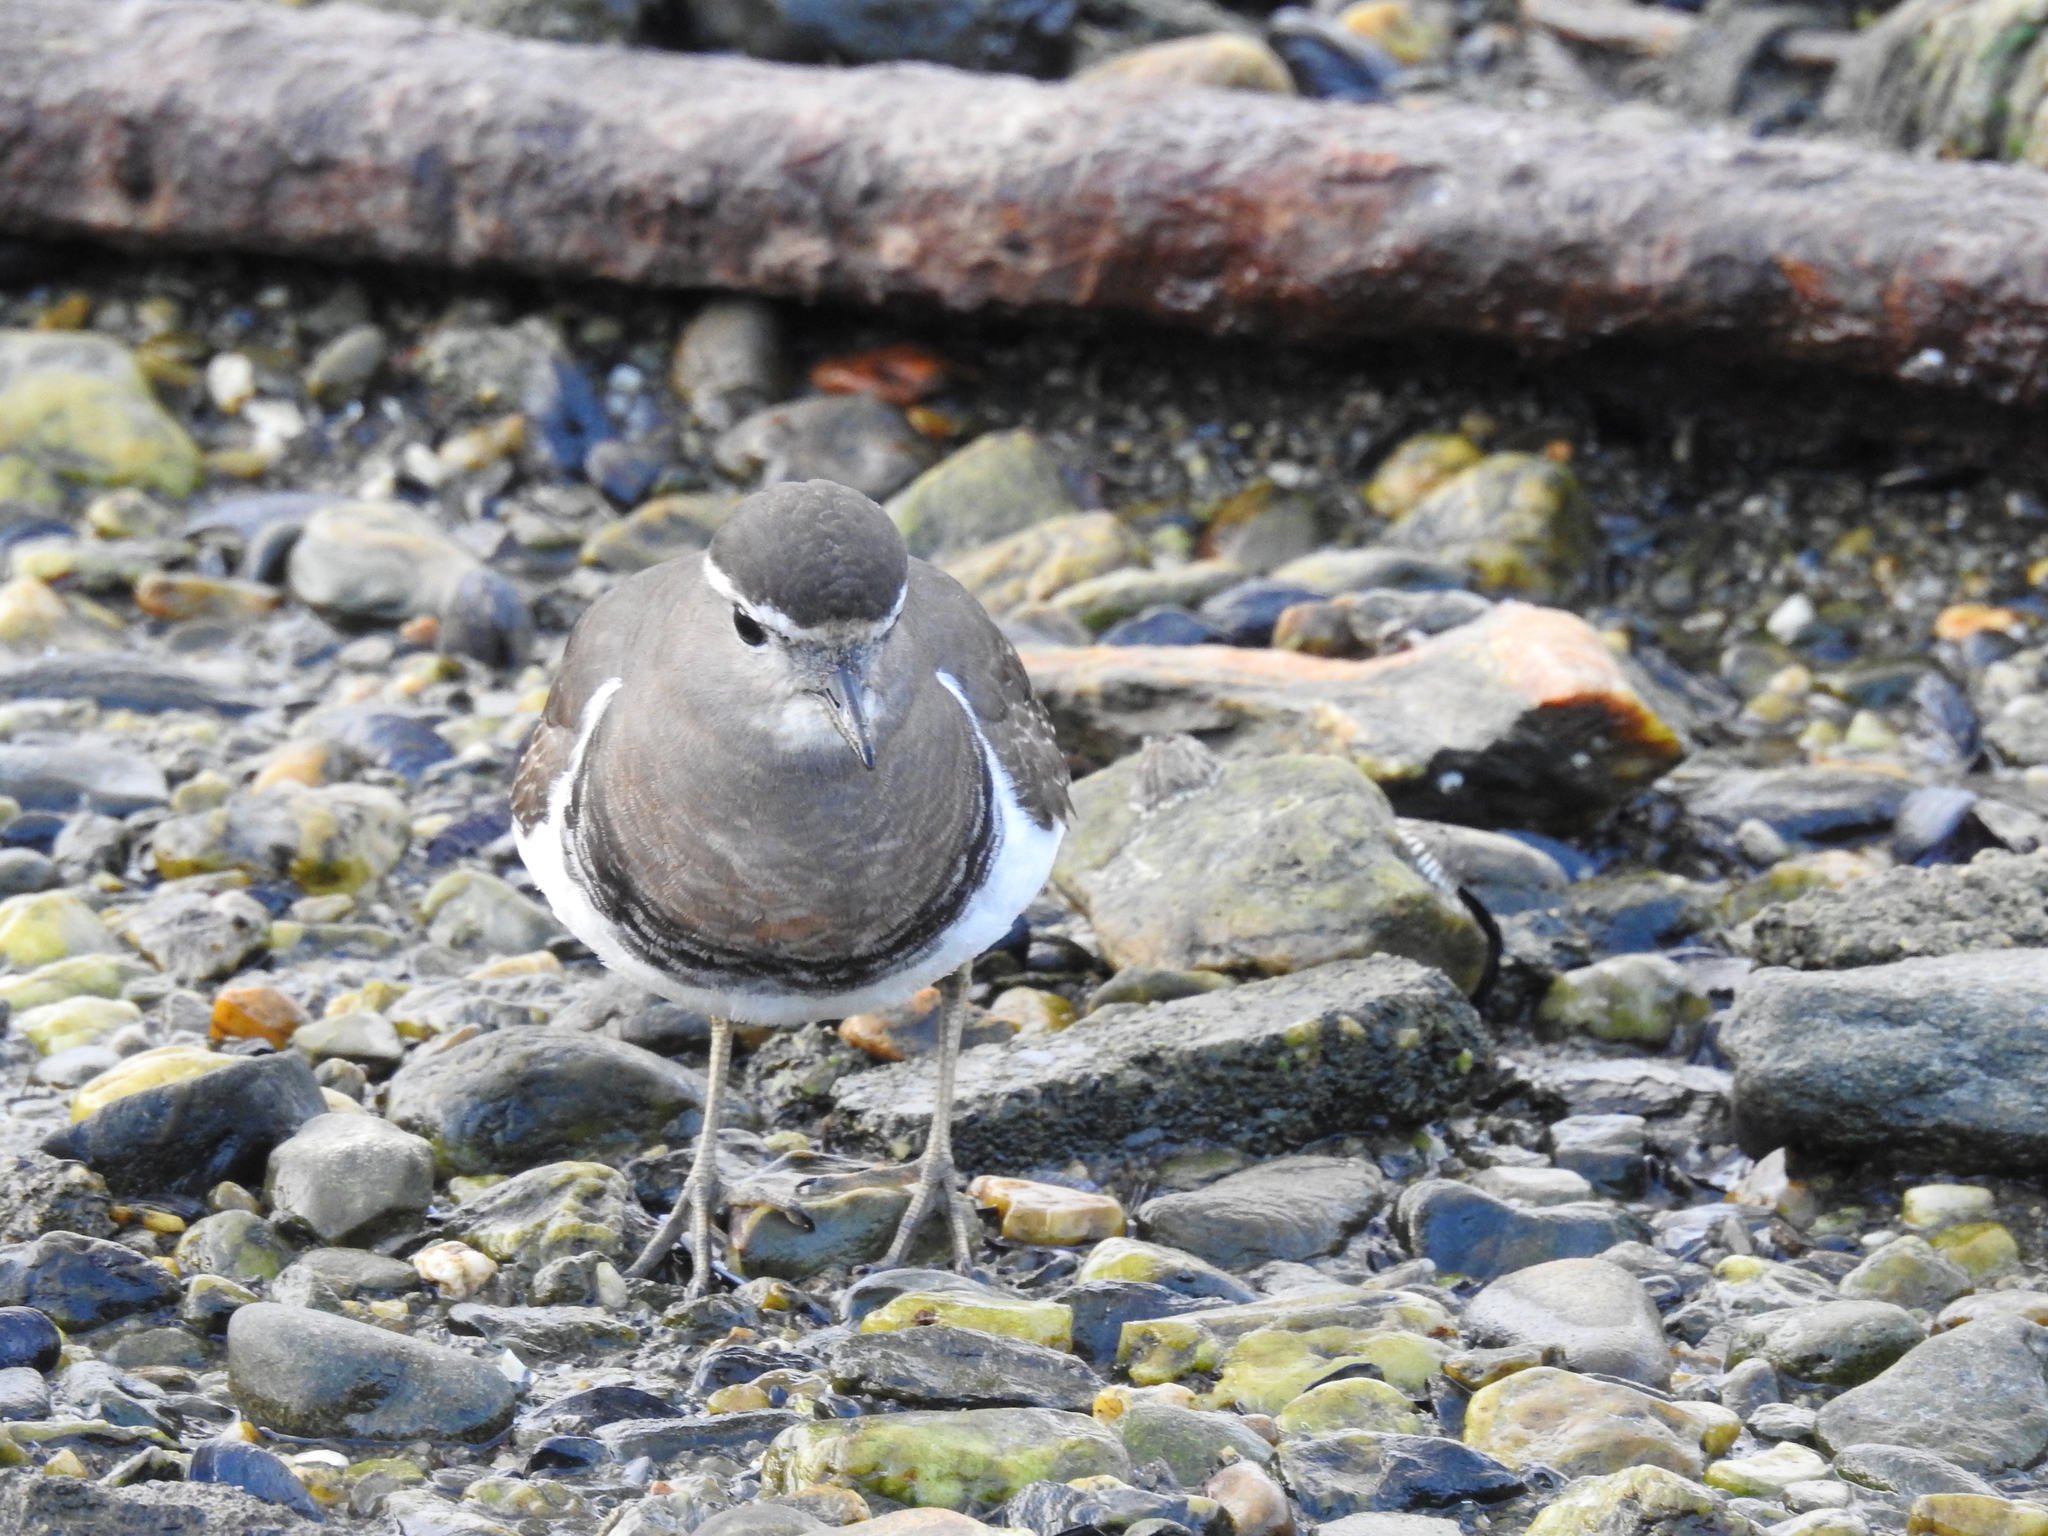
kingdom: Animalia
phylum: Chordata
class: Aves
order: Charadriiformes
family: Charadriidae
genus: Charadrius
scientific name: Charadrius modestus
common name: Rufous-chested plover
